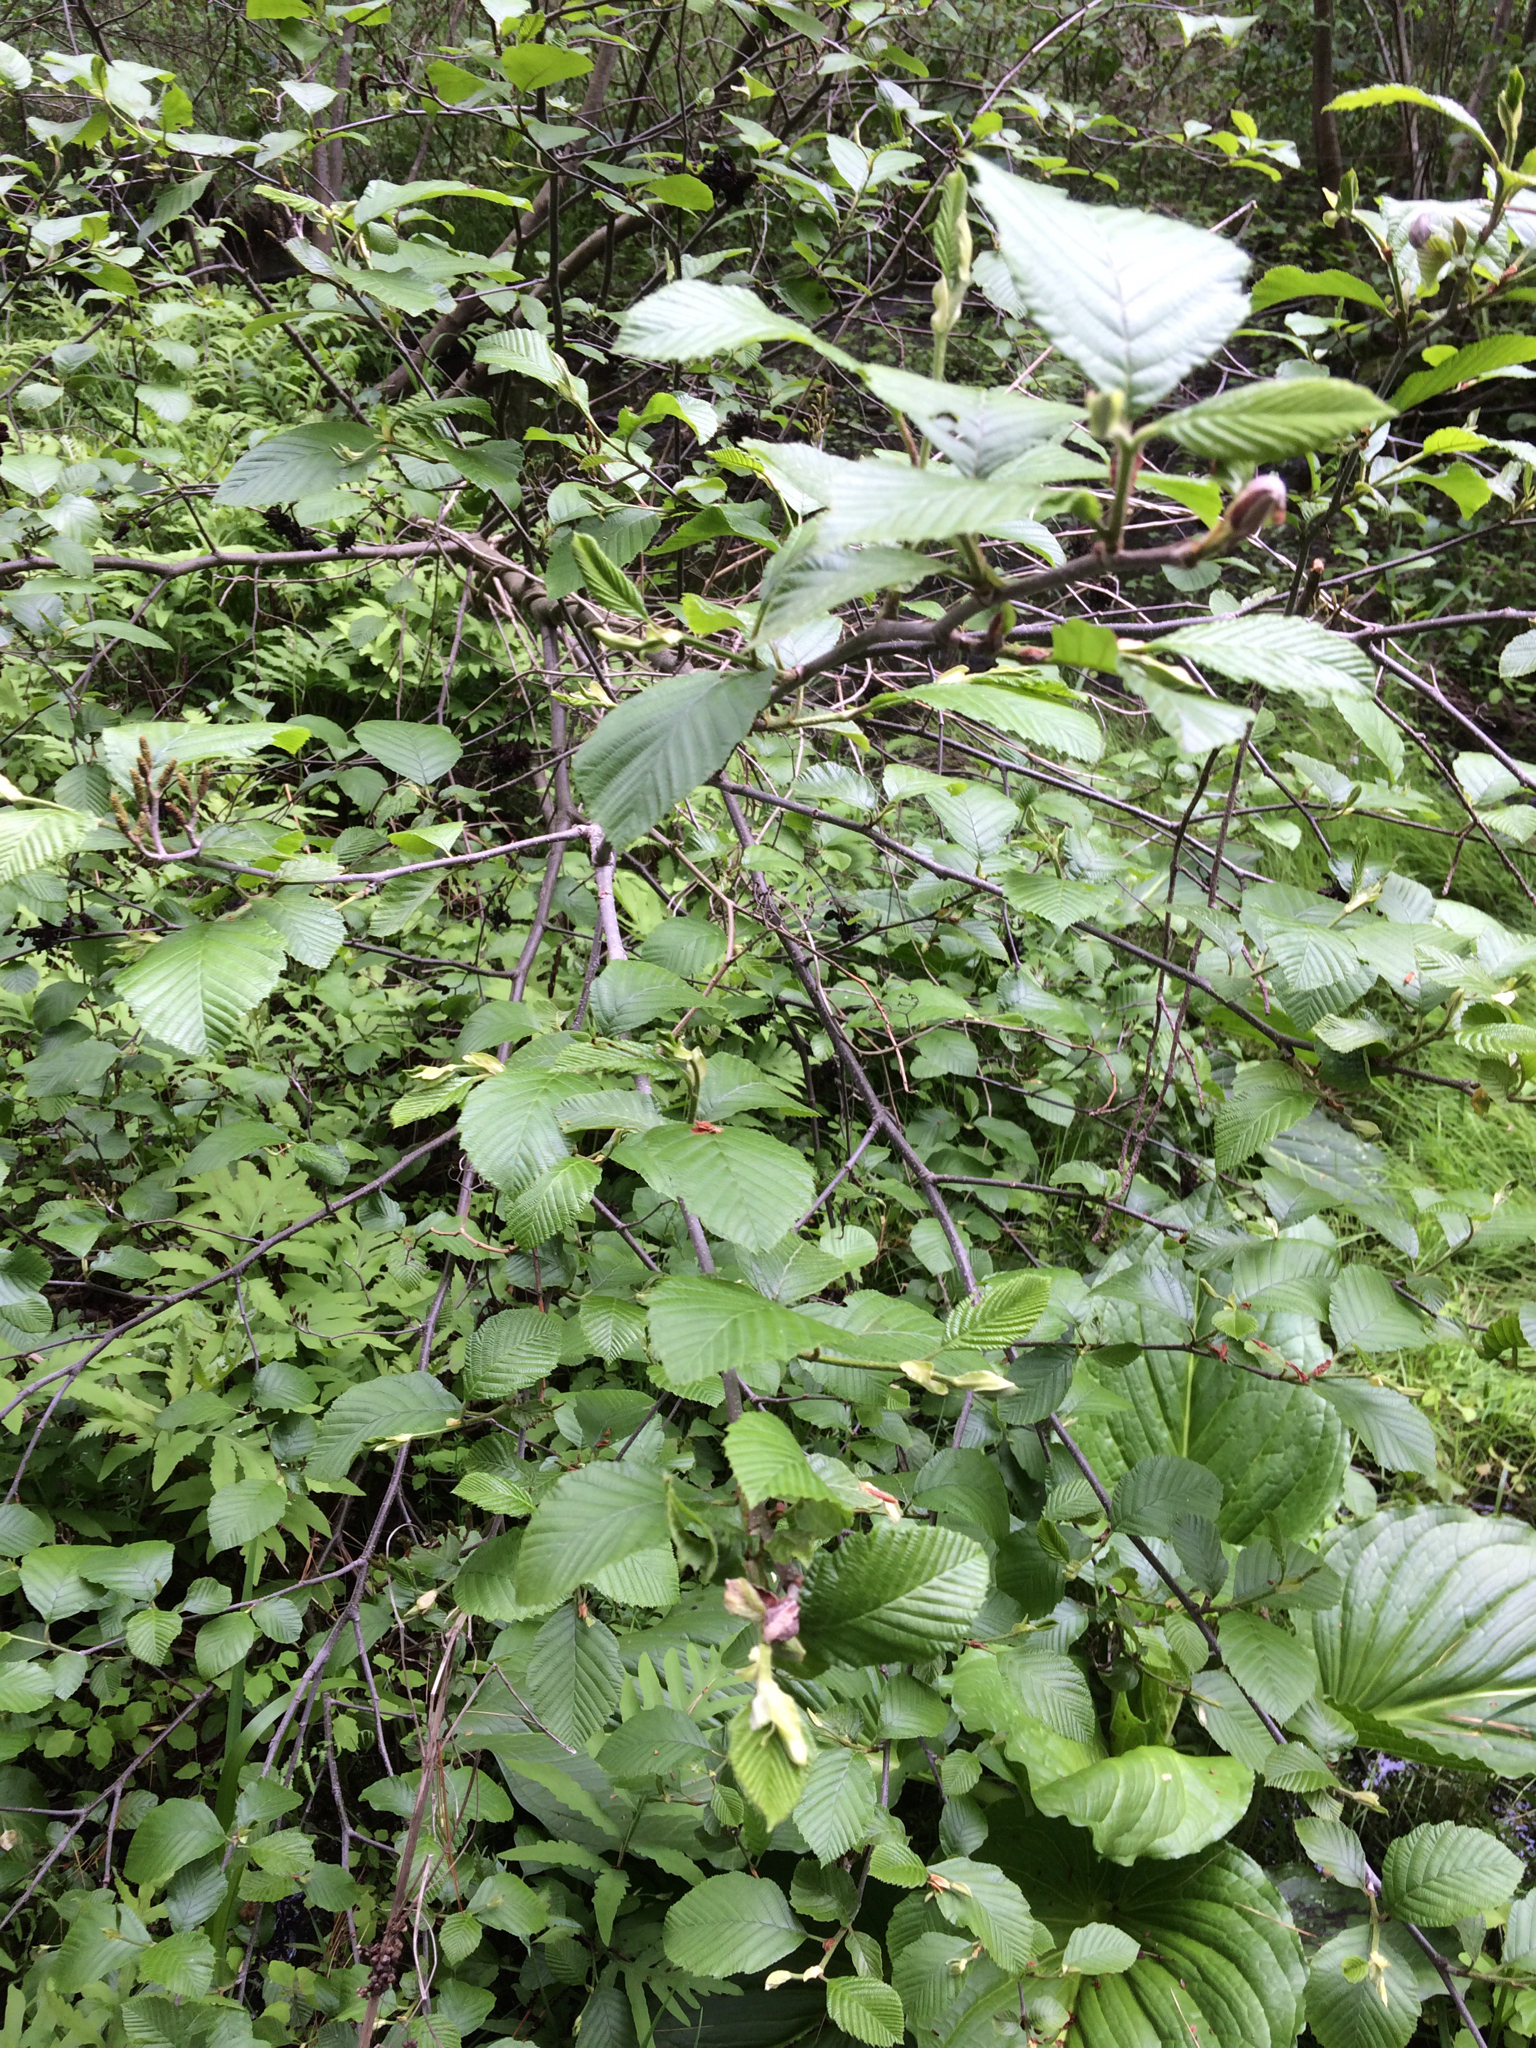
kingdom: Plantae
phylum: Tracheophyta
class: Magnoliopsida
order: Fagales
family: Betulaceae
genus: Alnus
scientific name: Alnus incana
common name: Grey alder
